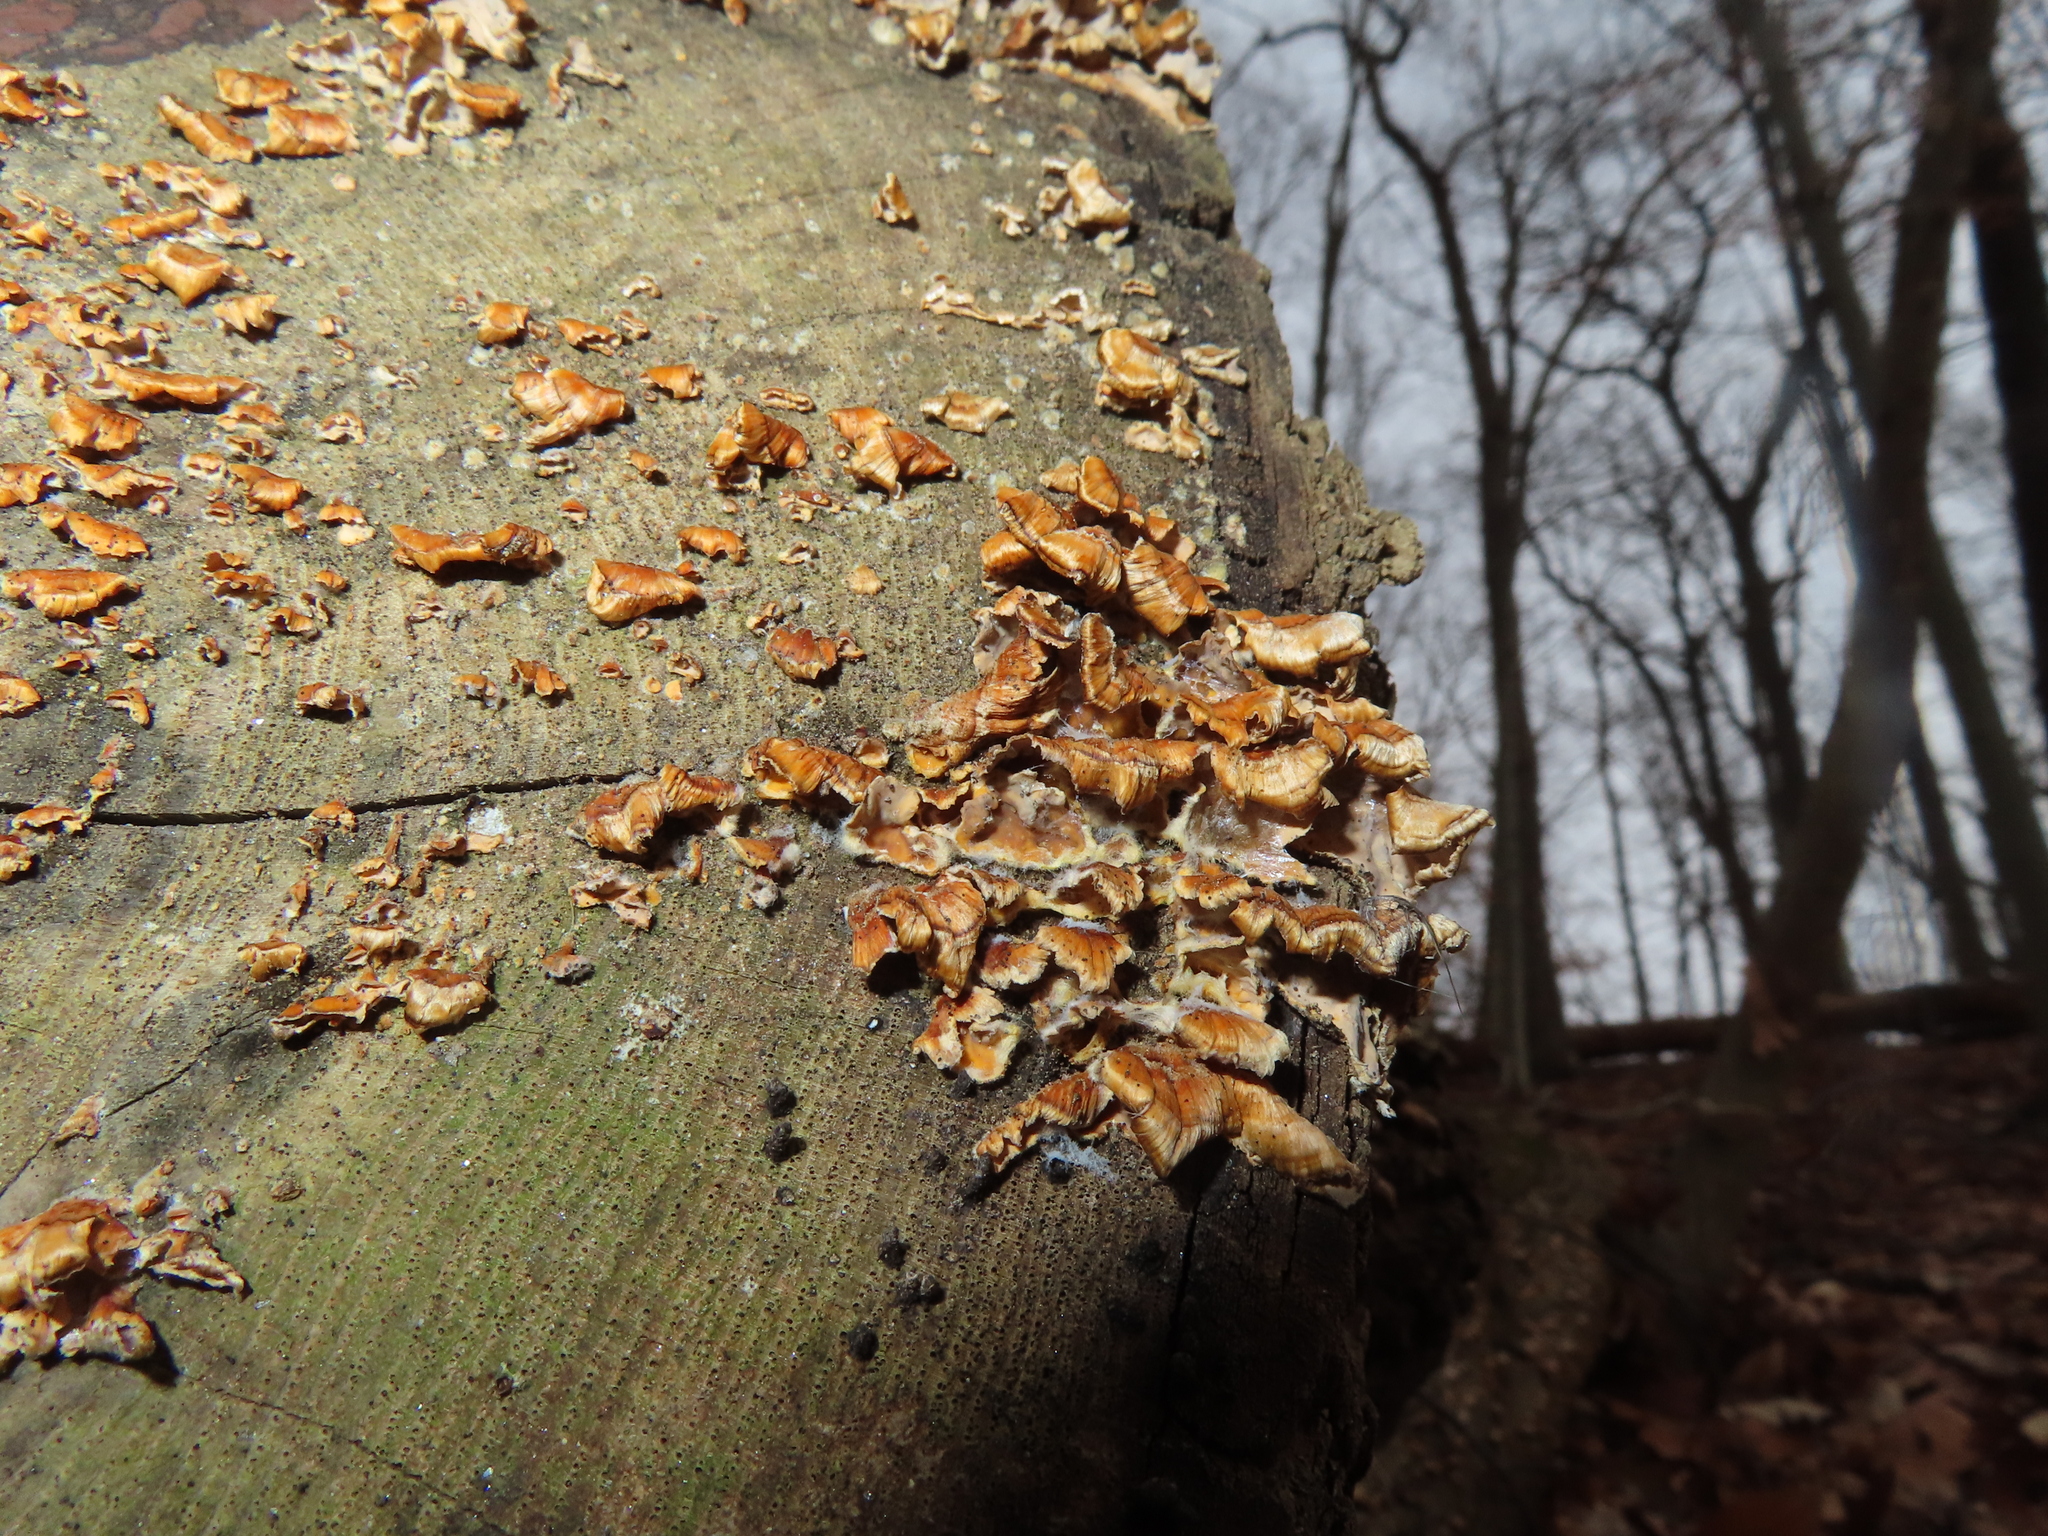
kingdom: Fungi
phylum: Basidiomycota
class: Agaricomycetes
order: Russulales
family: Stereaceae
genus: Stereum
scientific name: Stereum complicatum
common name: Crowded parchment
